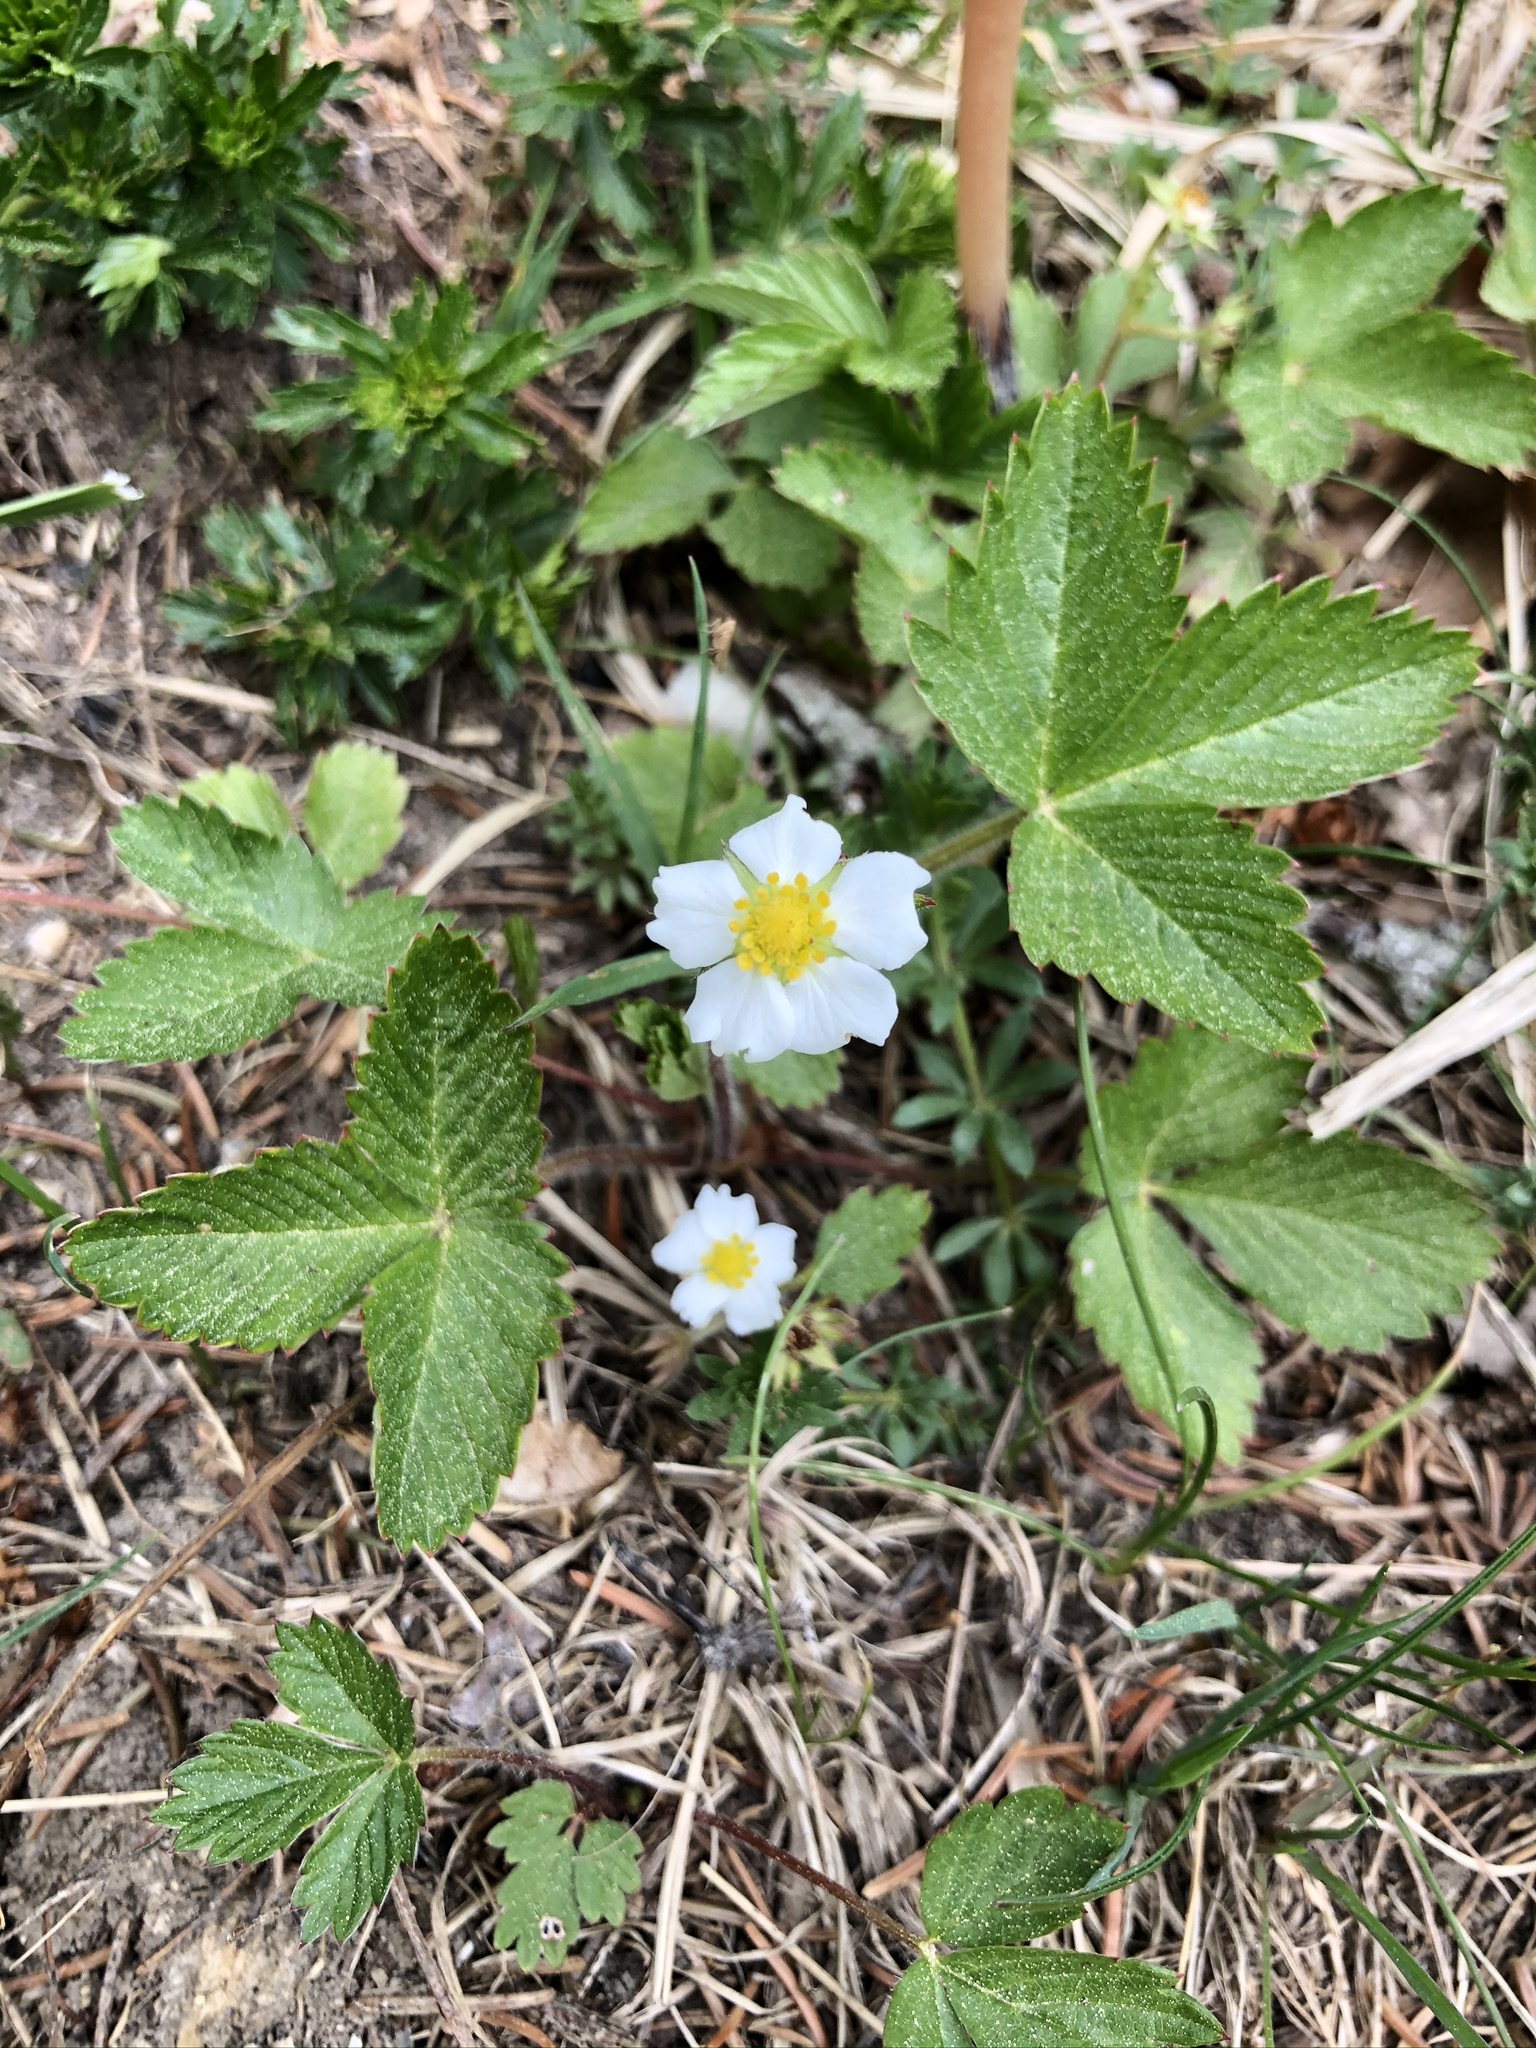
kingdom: Plantae
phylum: Tracheophyta
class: Magnoliopsida
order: Rosales
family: Rosaceae
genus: Fragaria
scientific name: Fragaria vesca
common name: Wild strawberry
